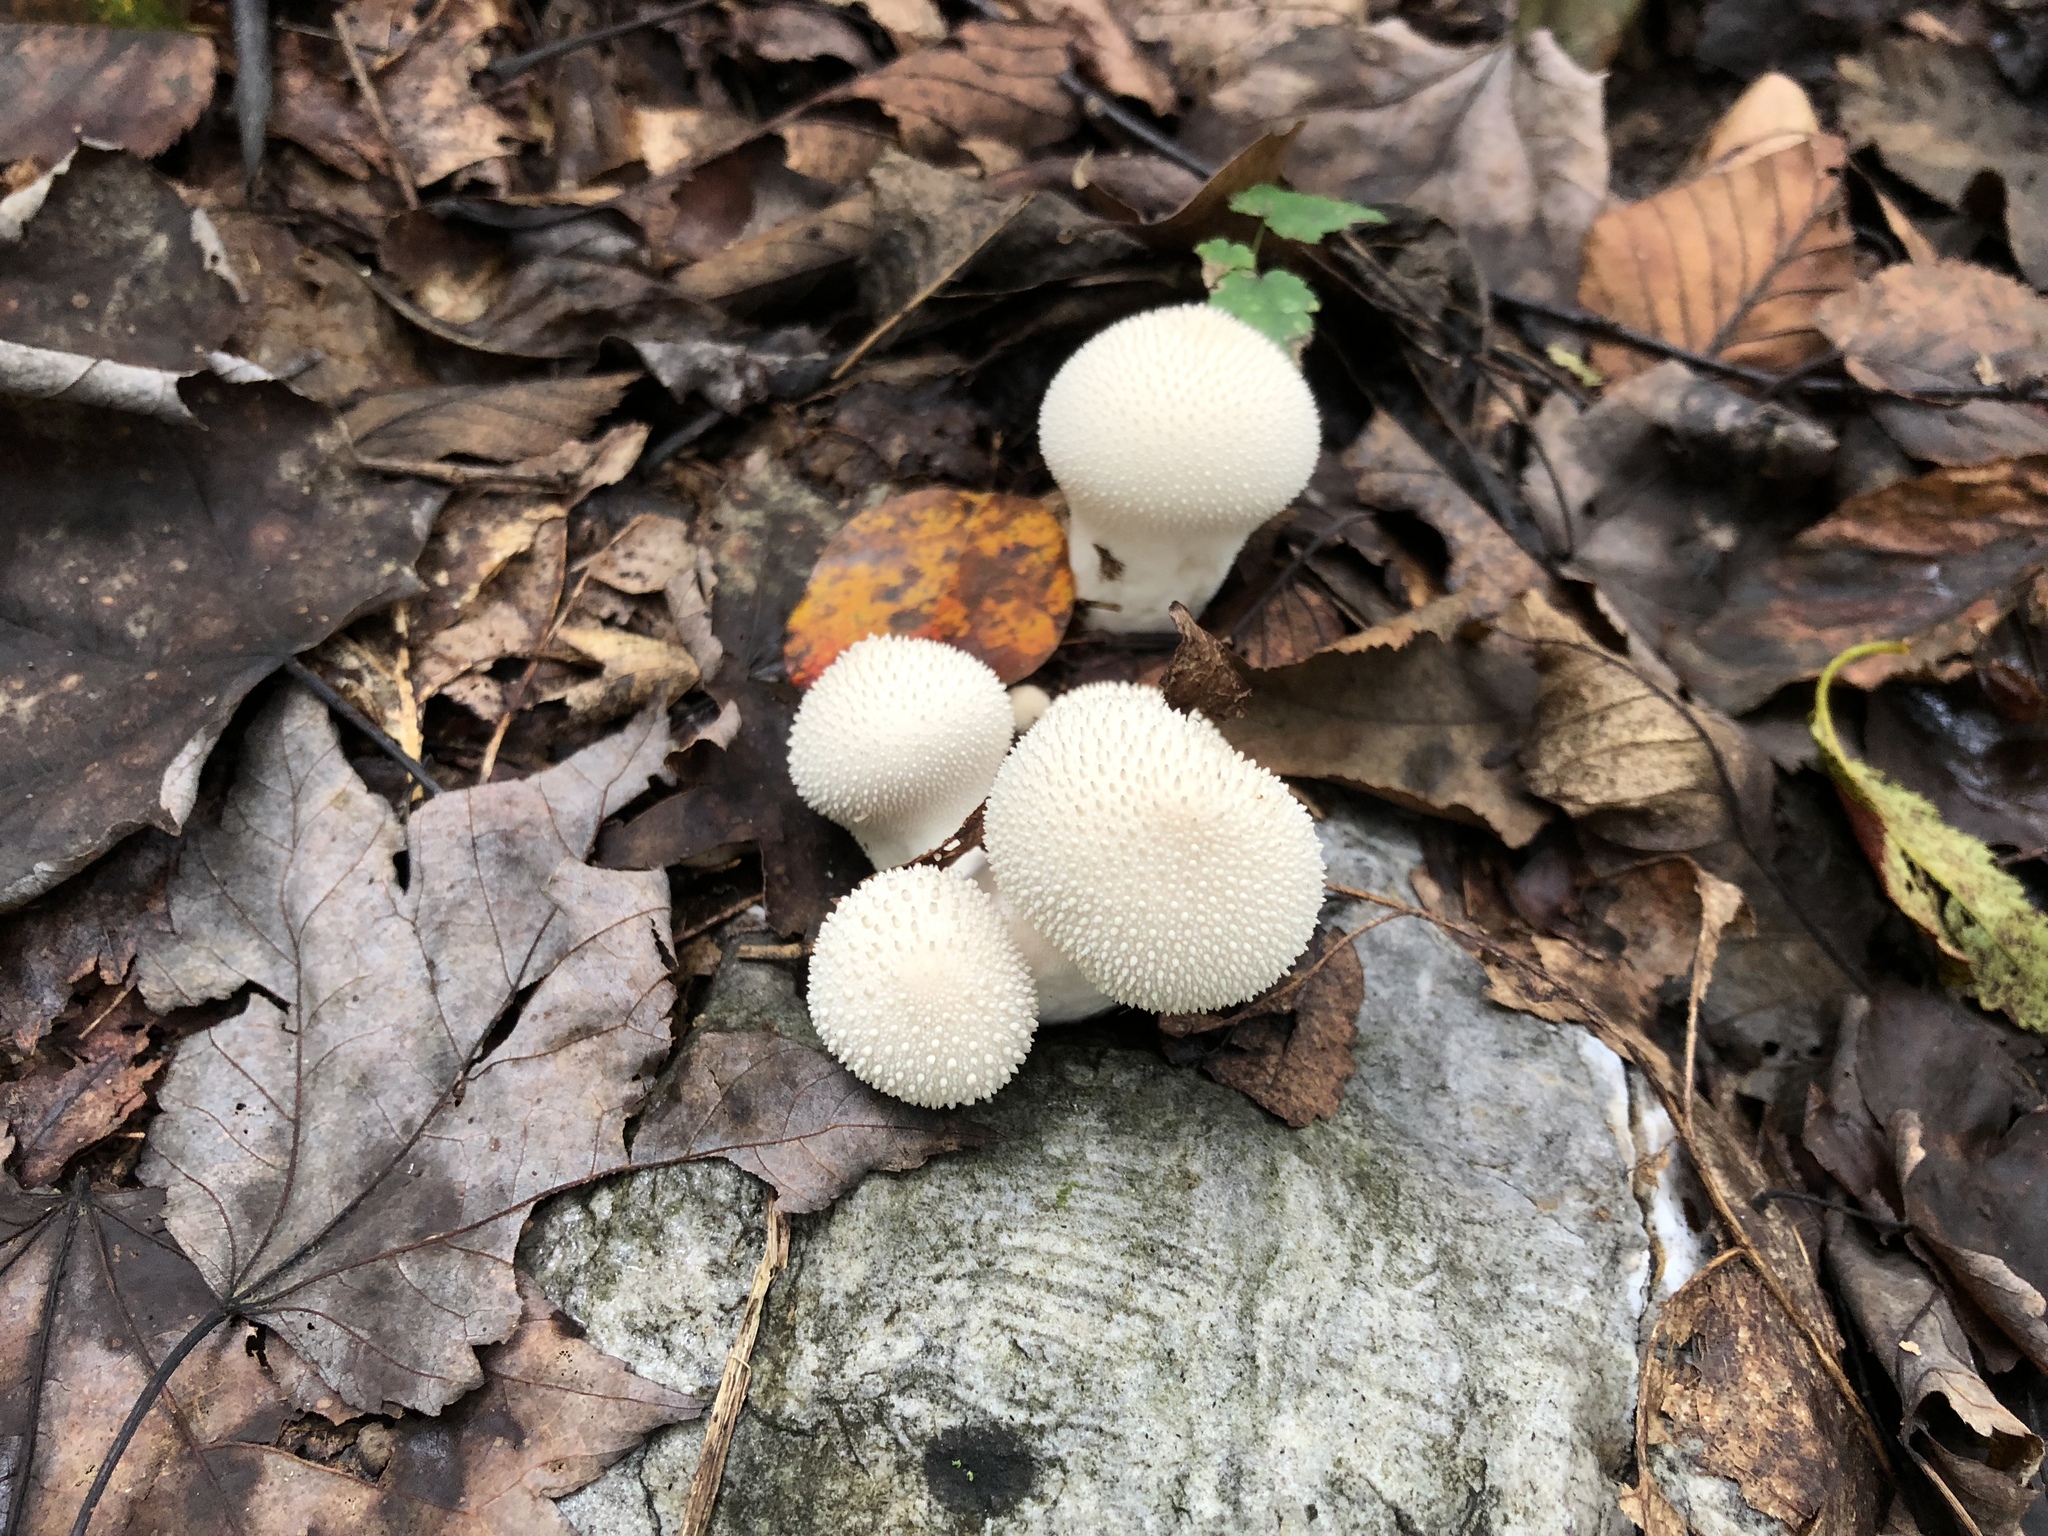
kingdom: Fungi
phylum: Basidiomycota
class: Agaricomycetes
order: Agaricales
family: Lycoperdaceae
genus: Lycoperdon
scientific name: Lycoperdon perlatum
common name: Common puffball
